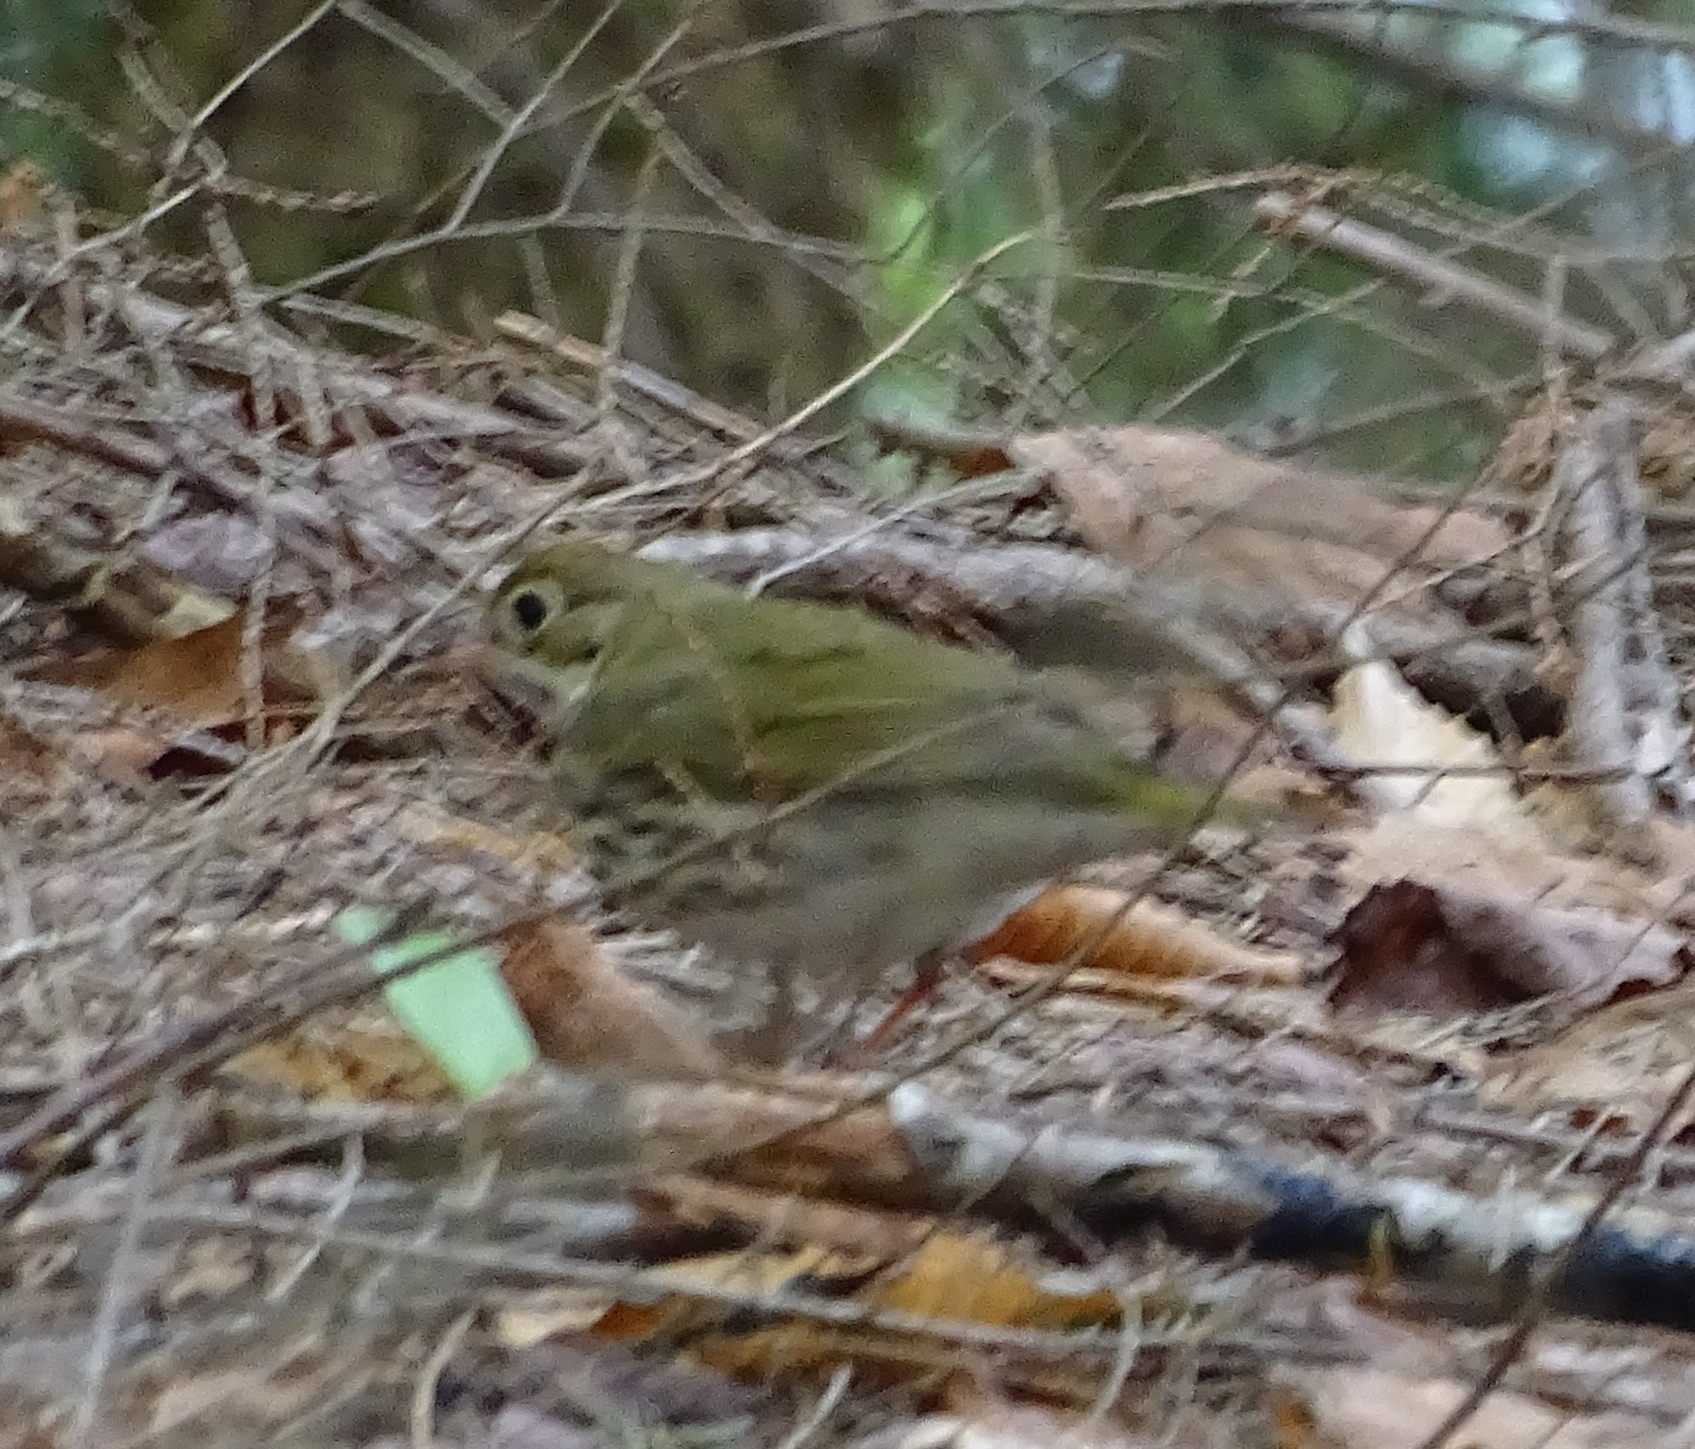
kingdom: Animalia
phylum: Chordata
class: Aves
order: Passeriformes
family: Parulidae
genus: Seiurus
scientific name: Seiurus aurocapilla
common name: Ovenbird
